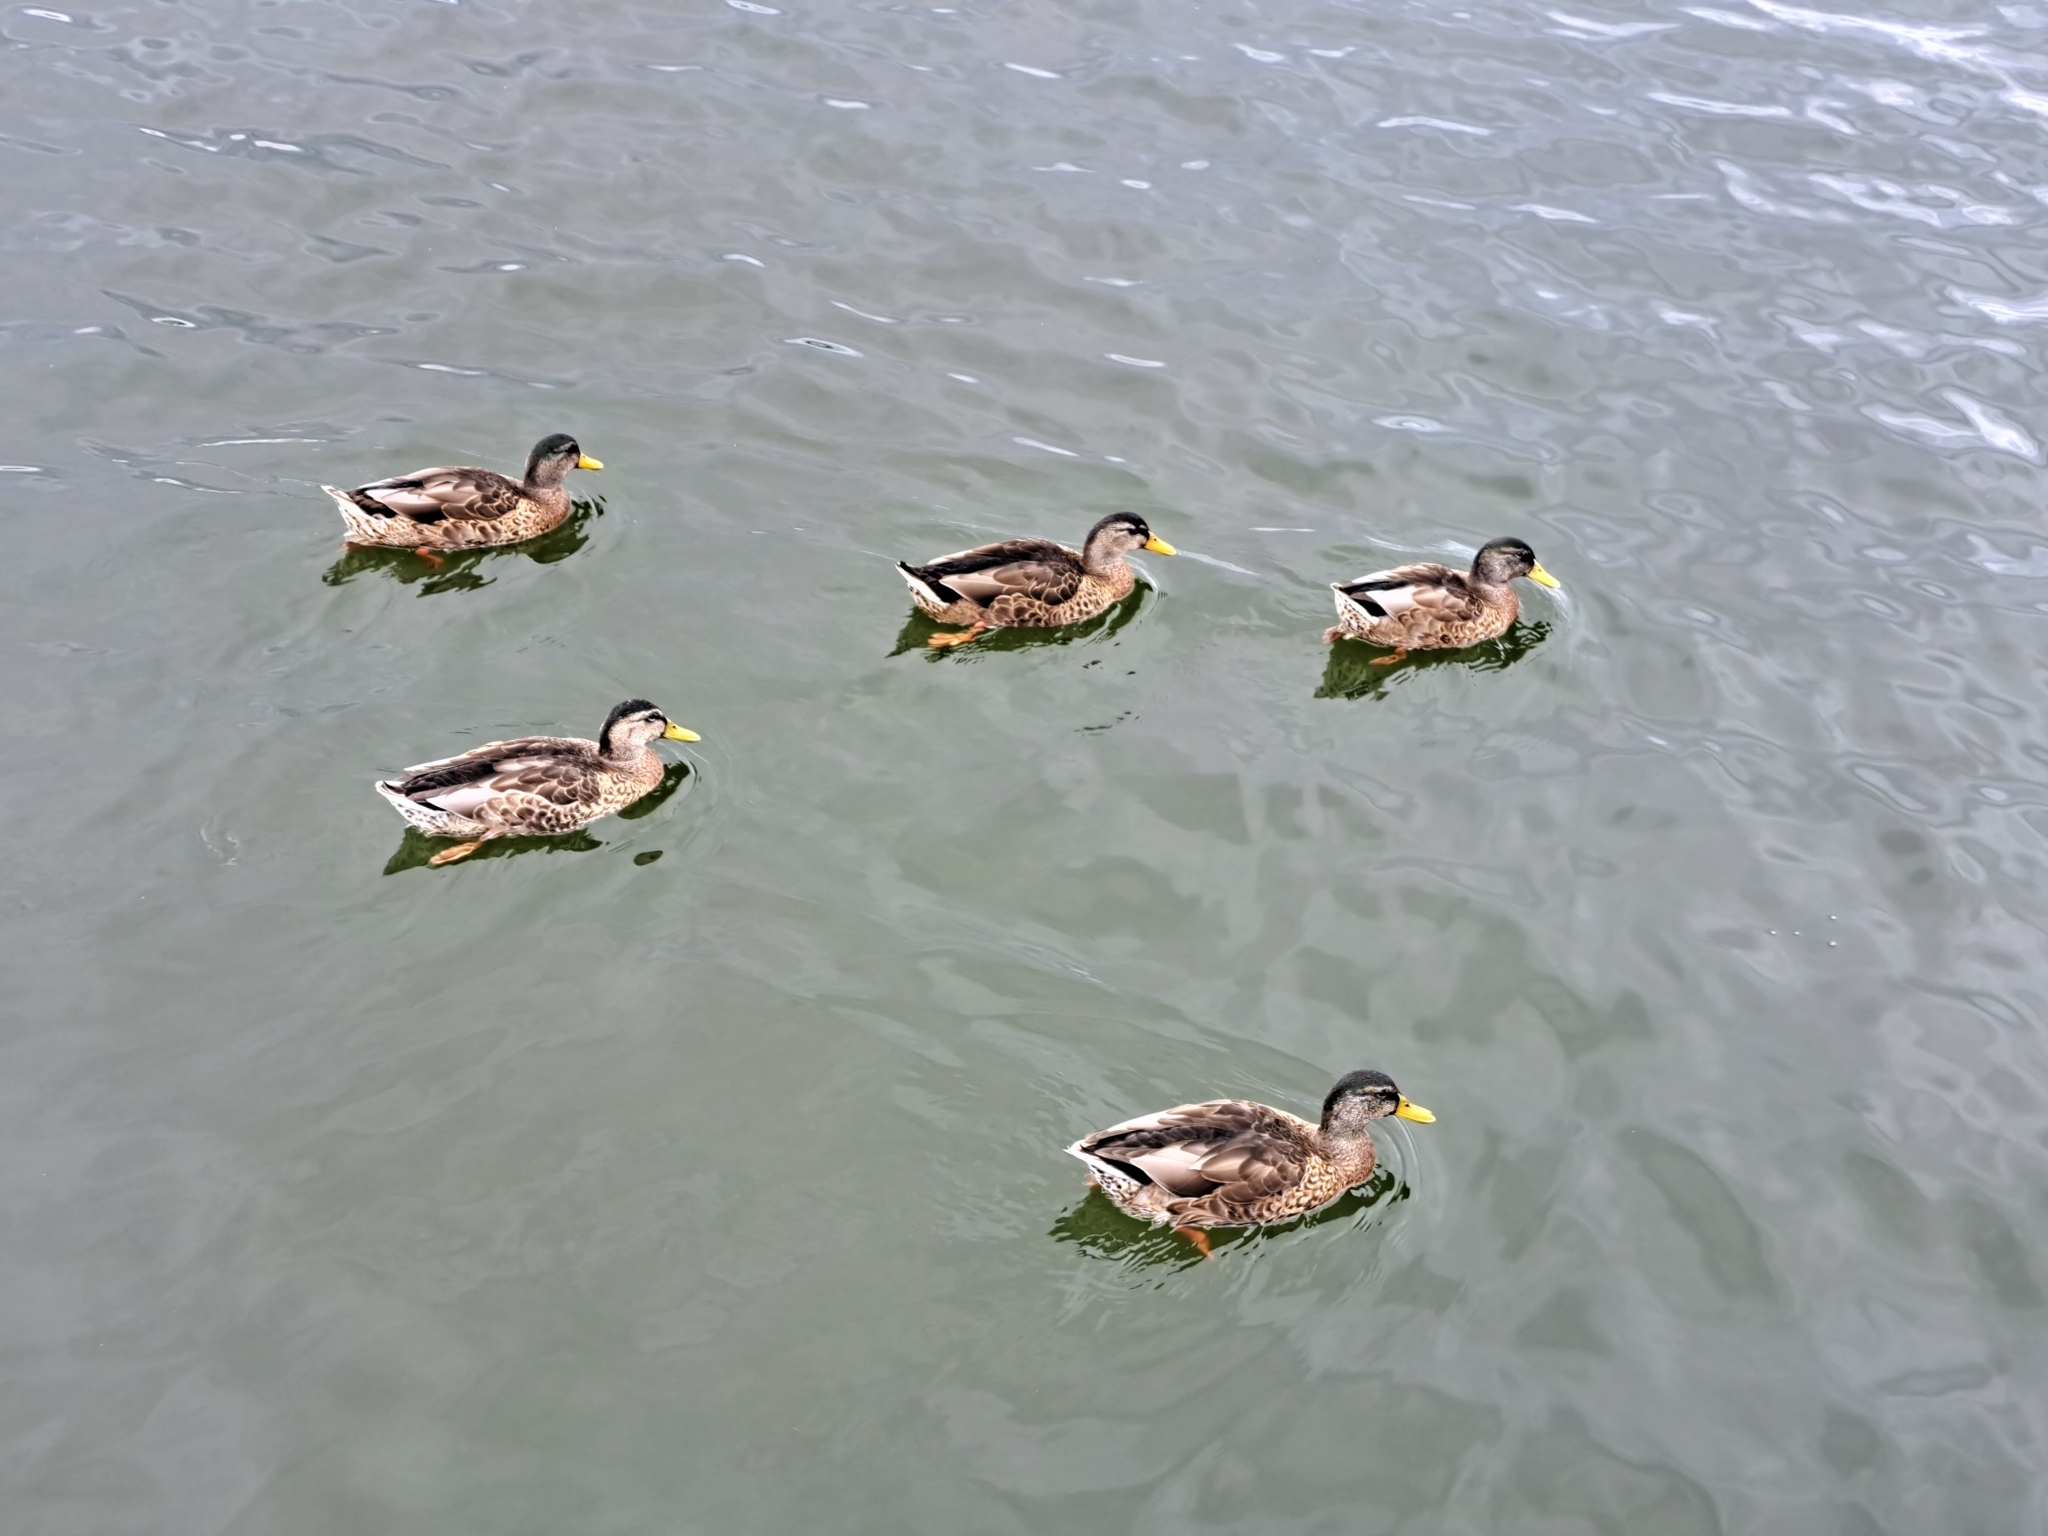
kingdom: Animalia
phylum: Chordata
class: Aves
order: Anseriformes
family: Anatidae
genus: Anas
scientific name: Anas platyrhynchos
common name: Mallard
